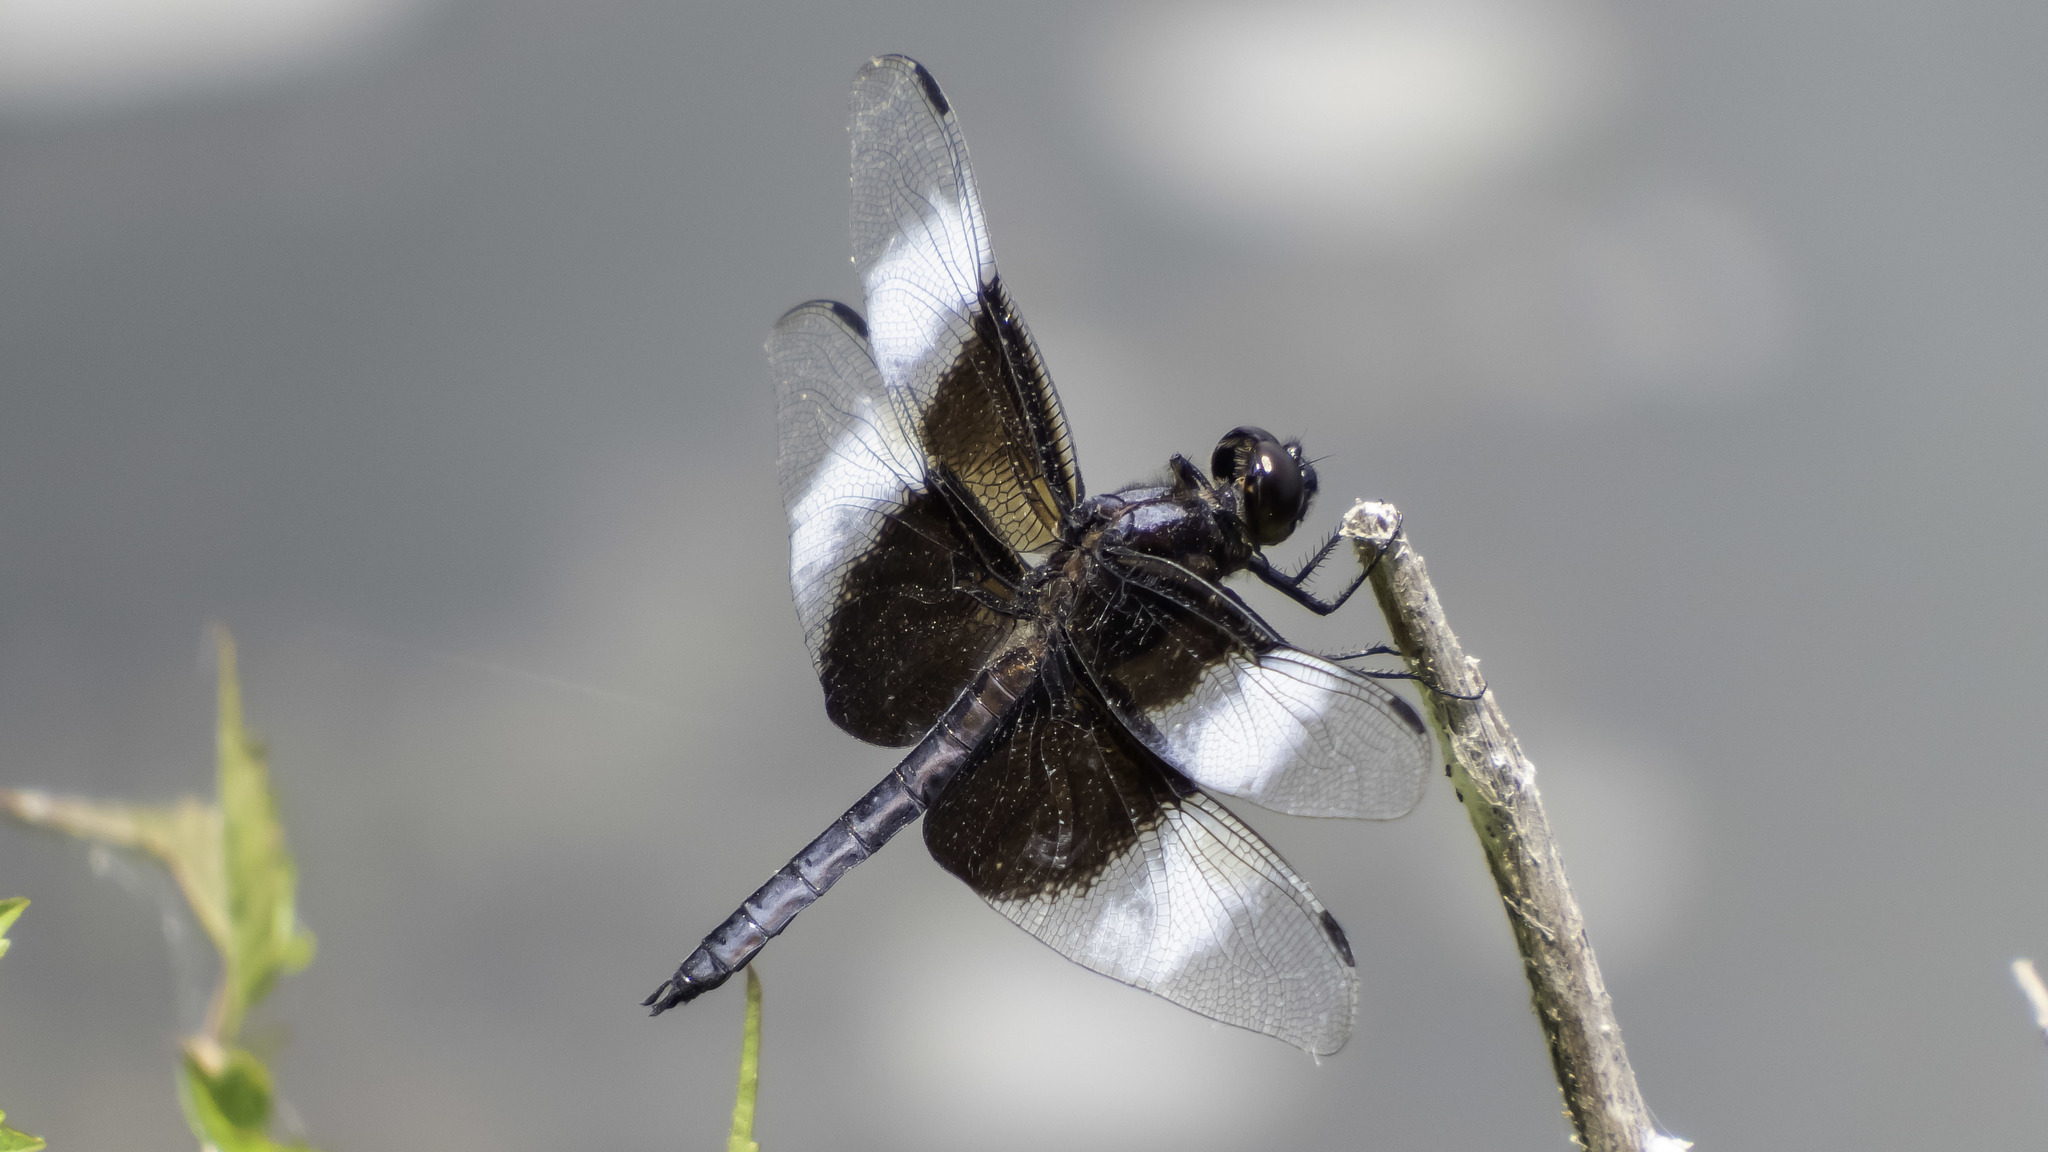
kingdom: Animalia
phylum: Arthropoda
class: Insecta
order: Odonata
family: Libellulidae
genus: Libellula
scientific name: Libellula luctuosa
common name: Widow skimmer
